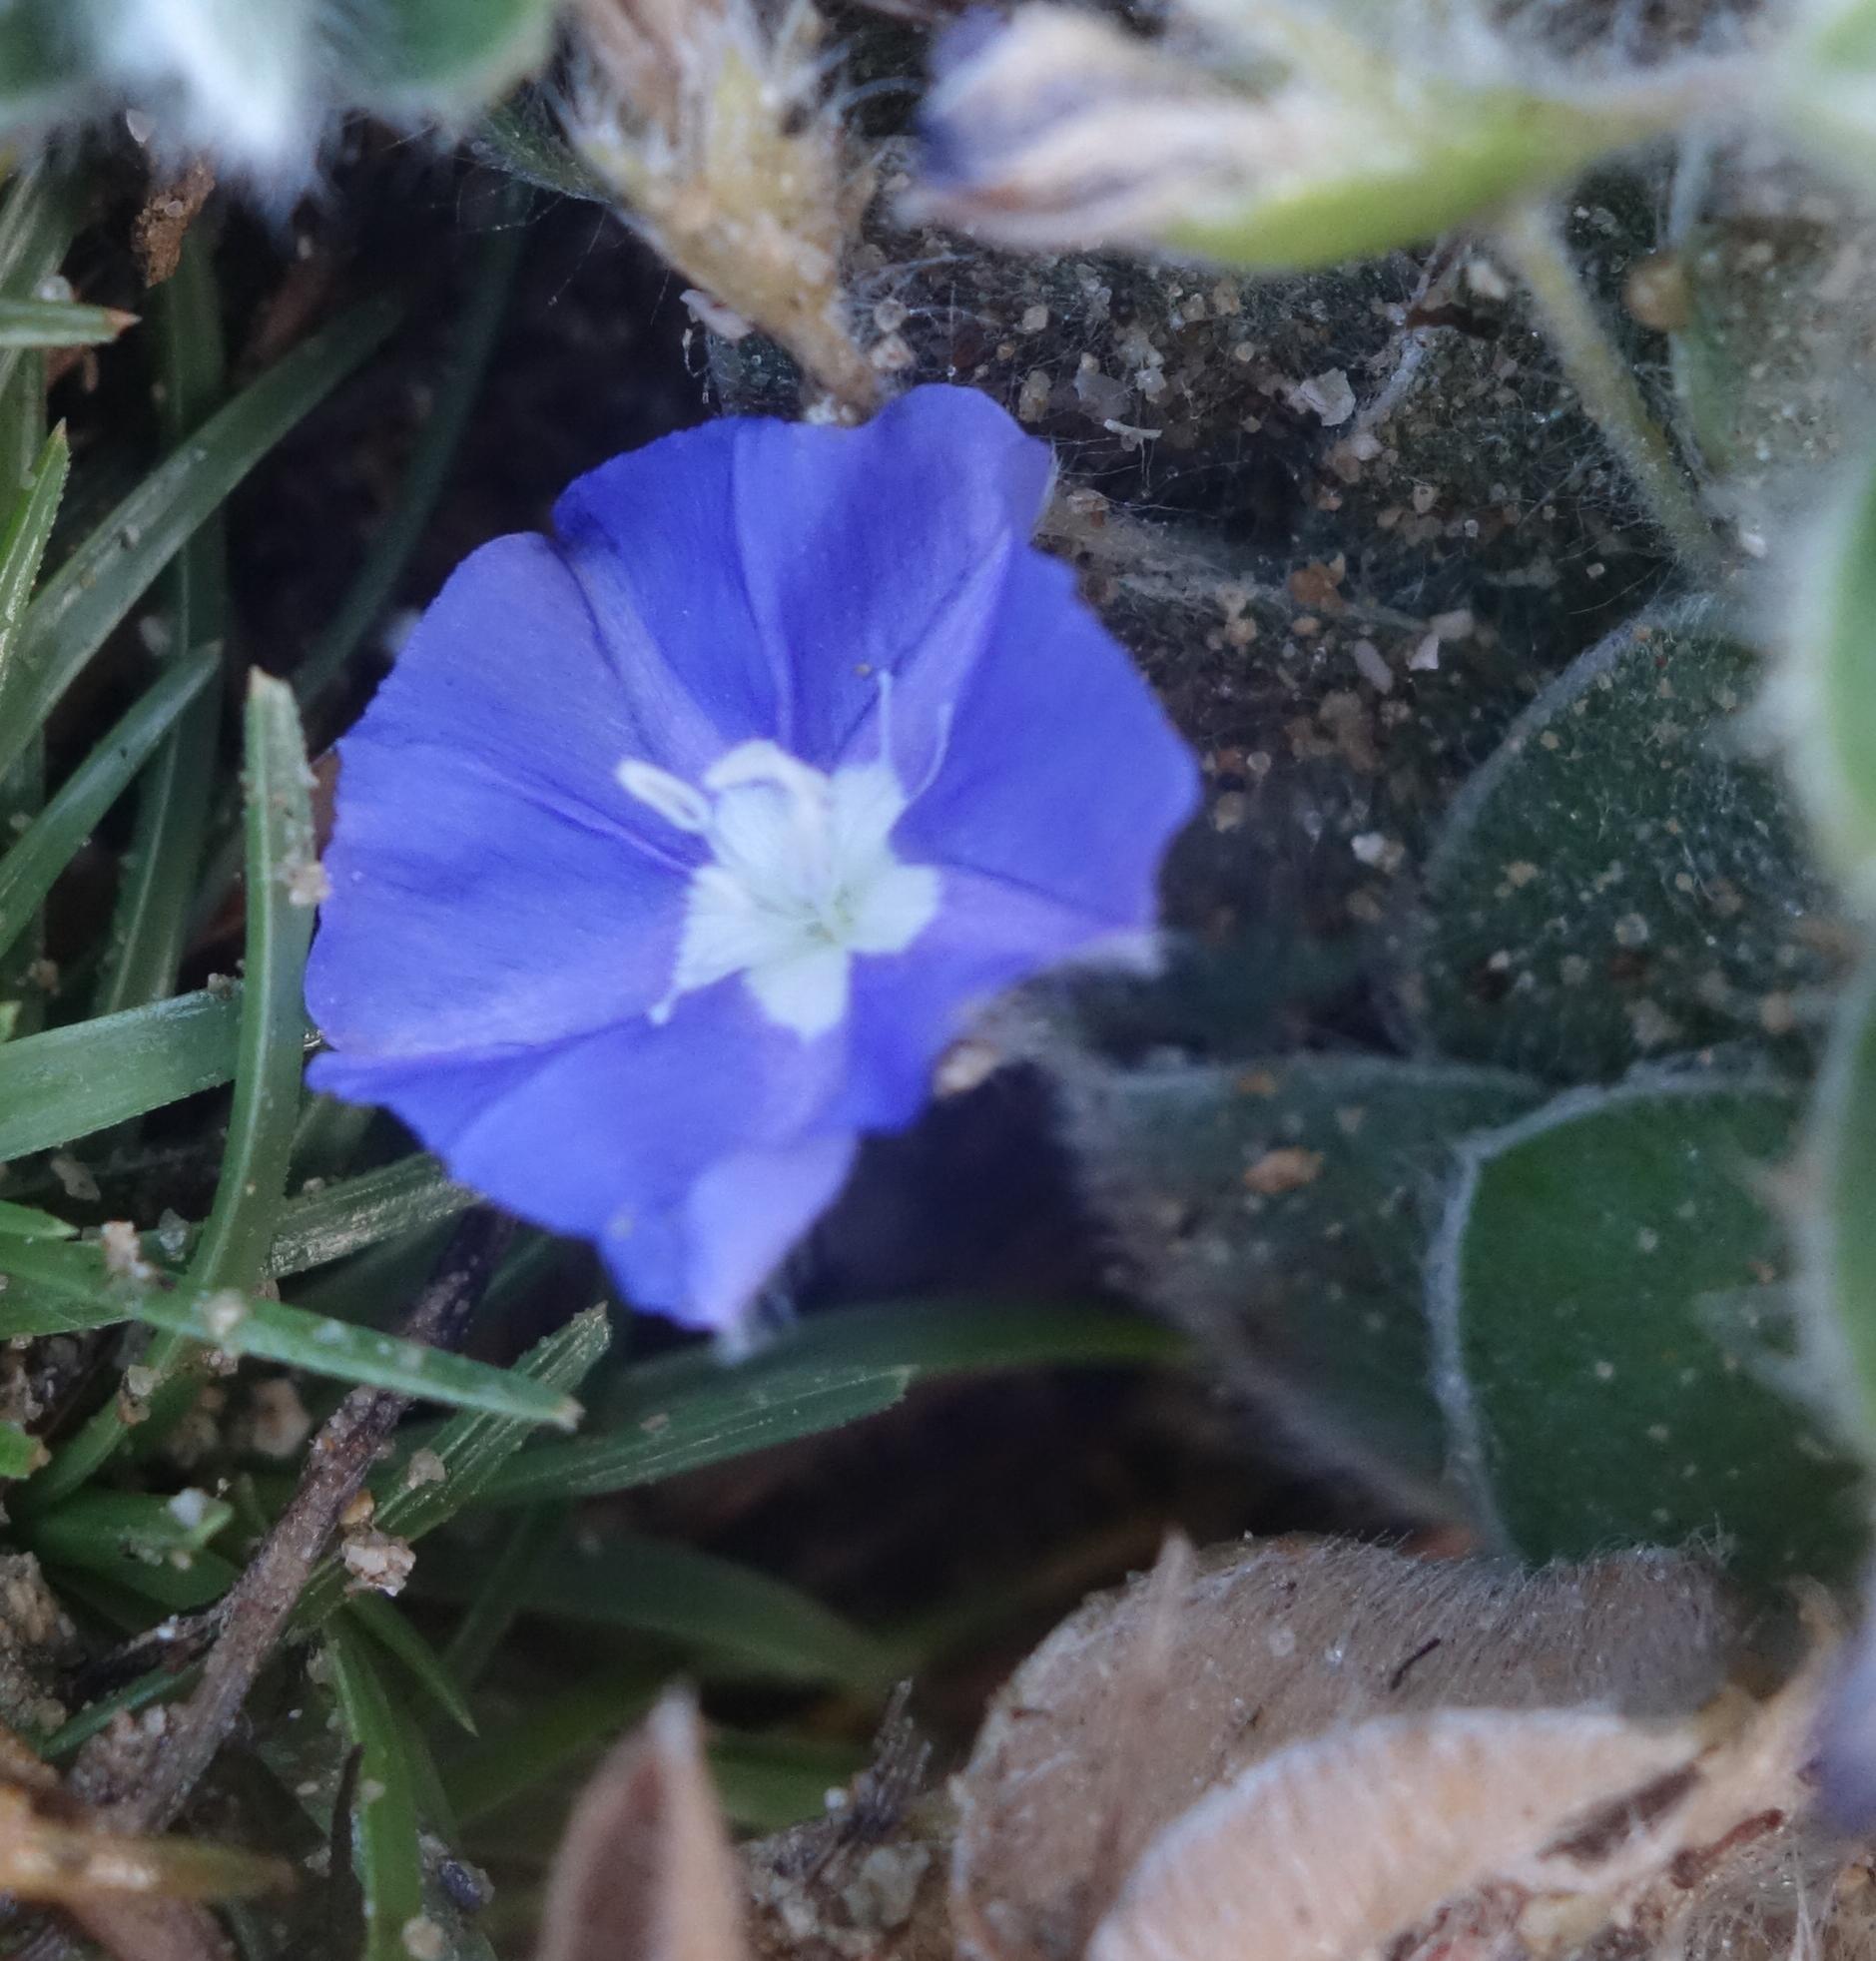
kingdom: Plantae
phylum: Tracheophyta
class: Magnoliopsida
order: Solanales
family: Convolvulaceae
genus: Evolvulus
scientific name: Evolvulus alsinoides
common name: Slender dwarf morning-glory
